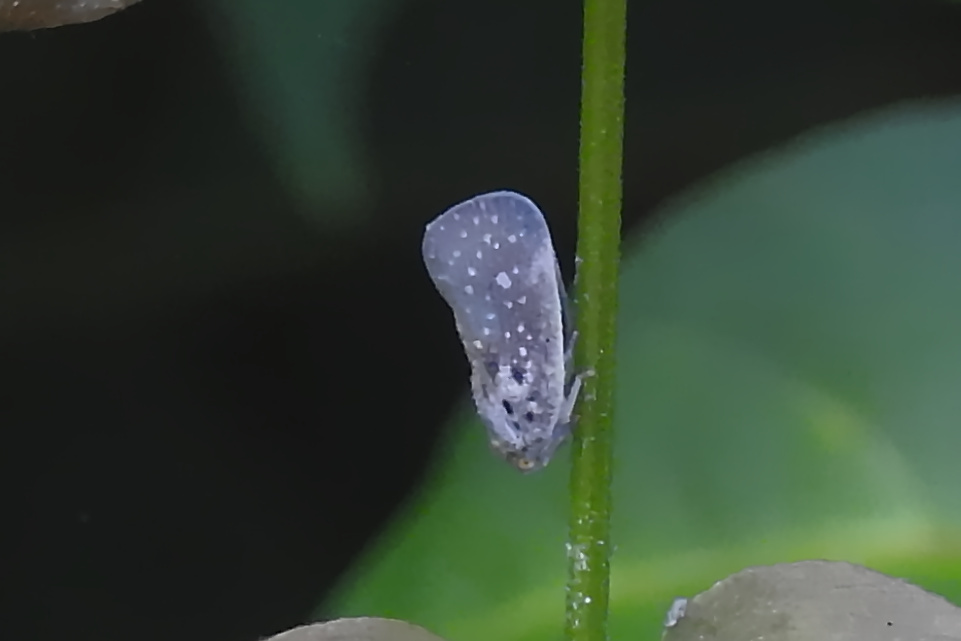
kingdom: Animalia
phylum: Arthropoda
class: Insecta
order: Hemiptera
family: Flatidae
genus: Metcalfa
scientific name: Metcalfa pruinosa
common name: Citrus flatid planthopper
